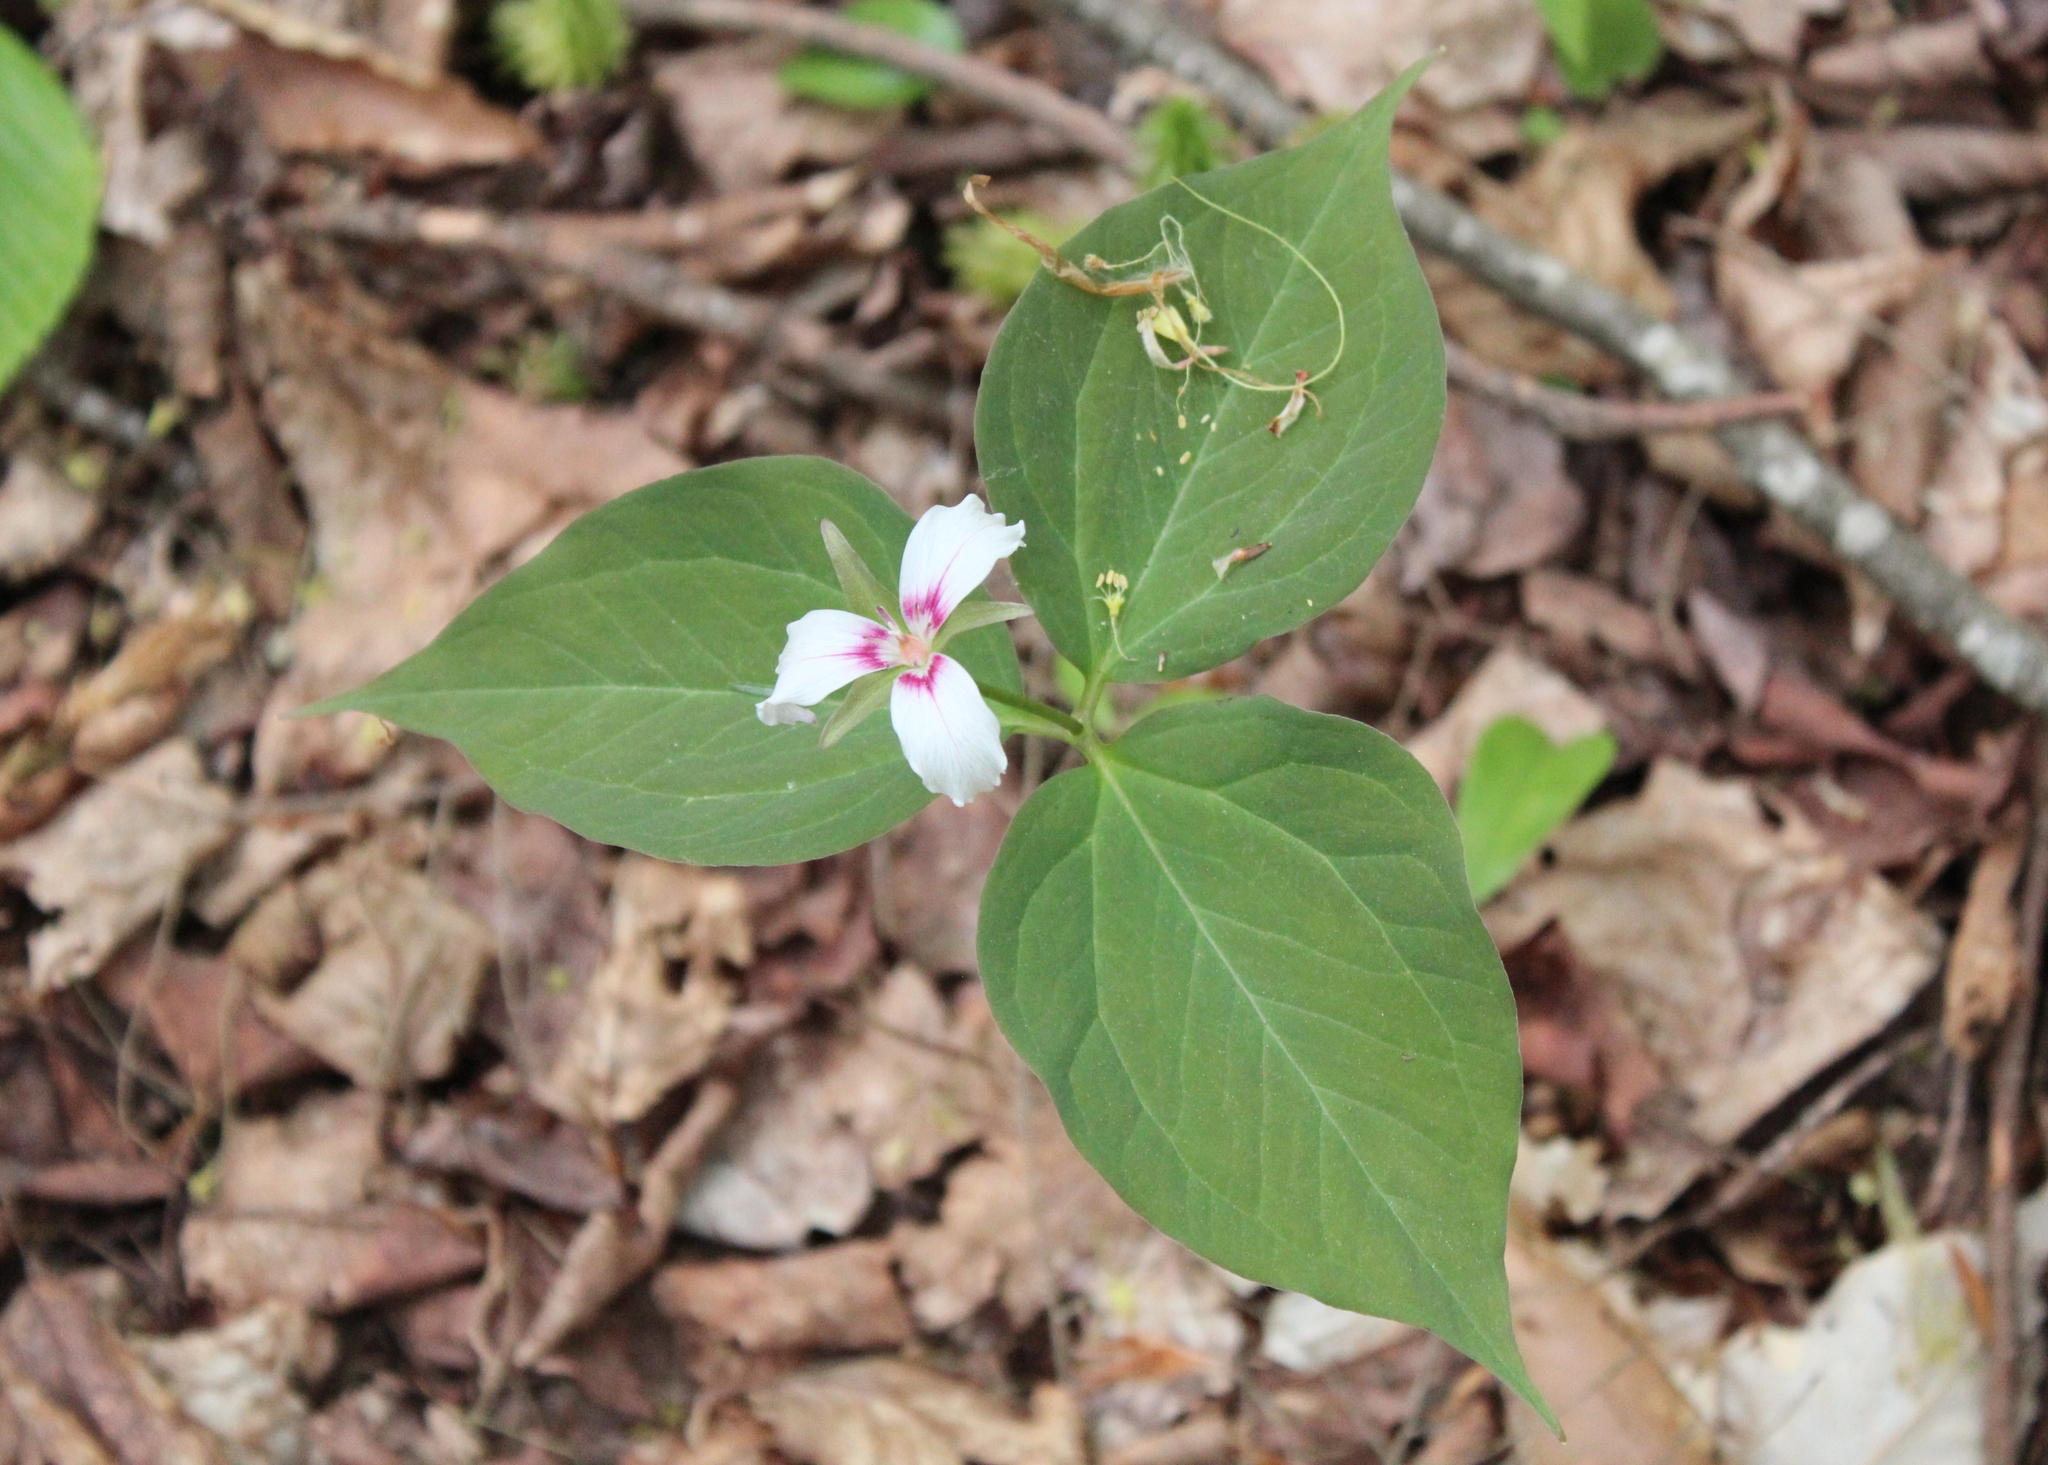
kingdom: Plantae
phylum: Tracheophyta
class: Liliopsida
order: Liliales
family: Melanthiaceae
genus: Trillium
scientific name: Trillium undulatum
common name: Paint trillium
